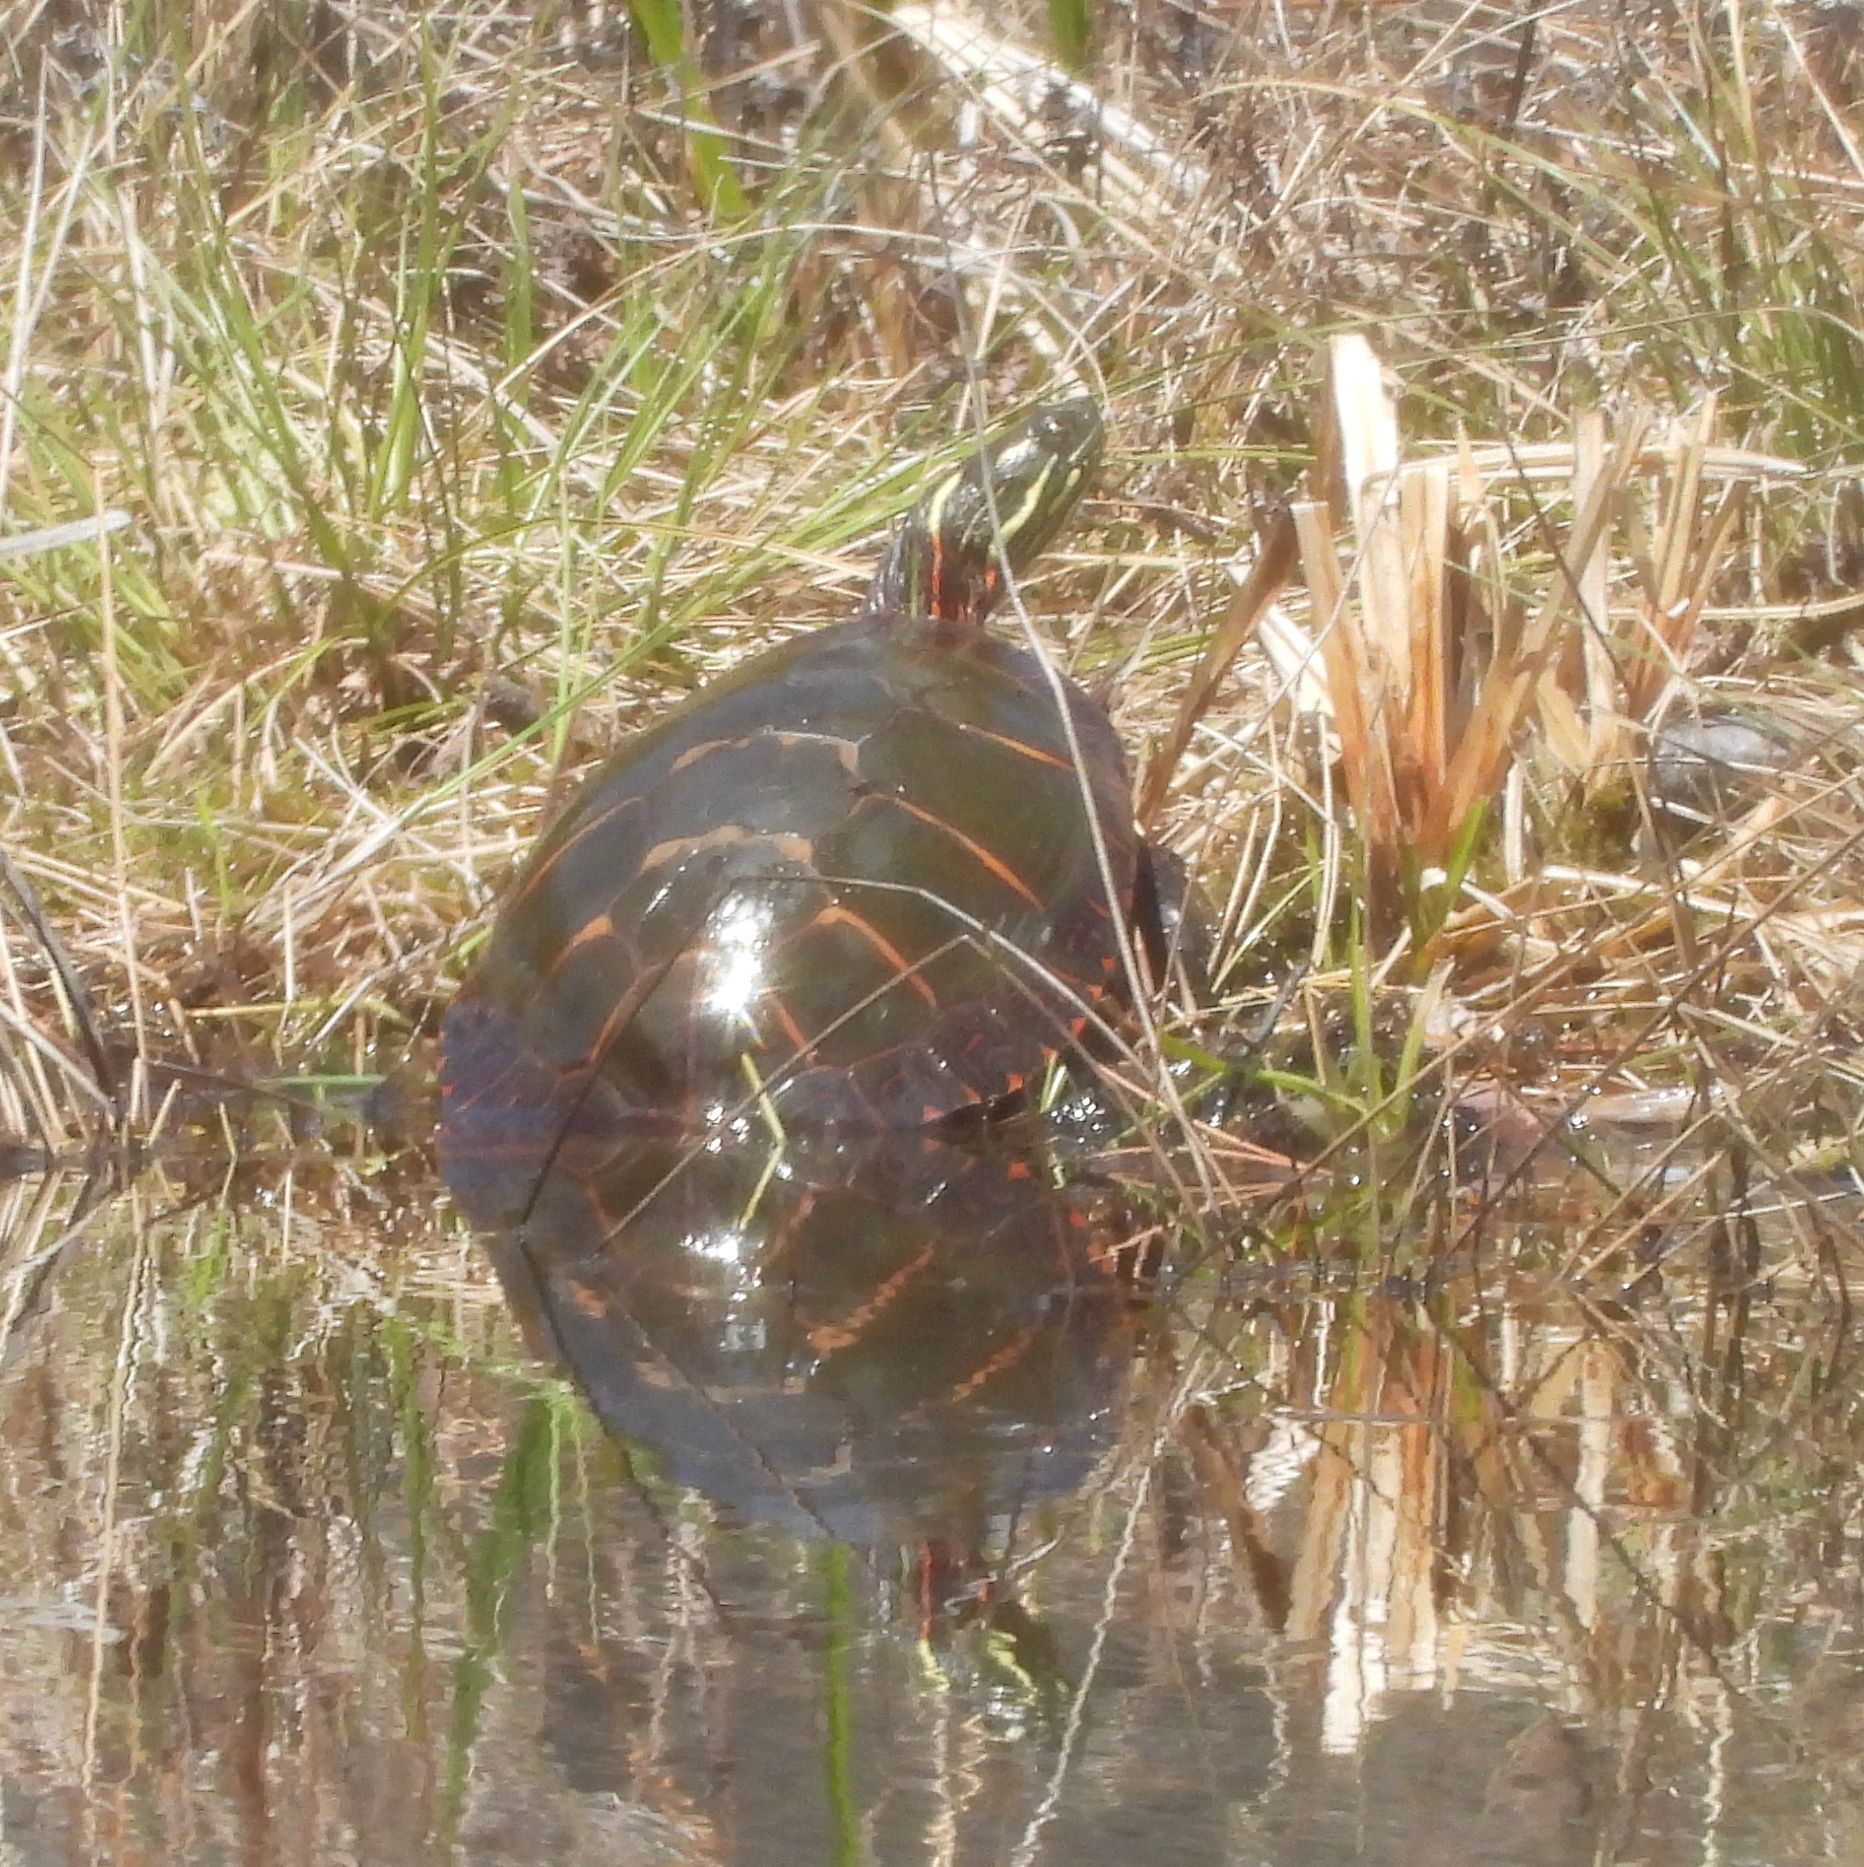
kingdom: Animalia
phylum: Chordata
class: Testudines
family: Emydidae
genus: Chrysemys
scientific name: Chrysemys picta
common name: Painted turtle
